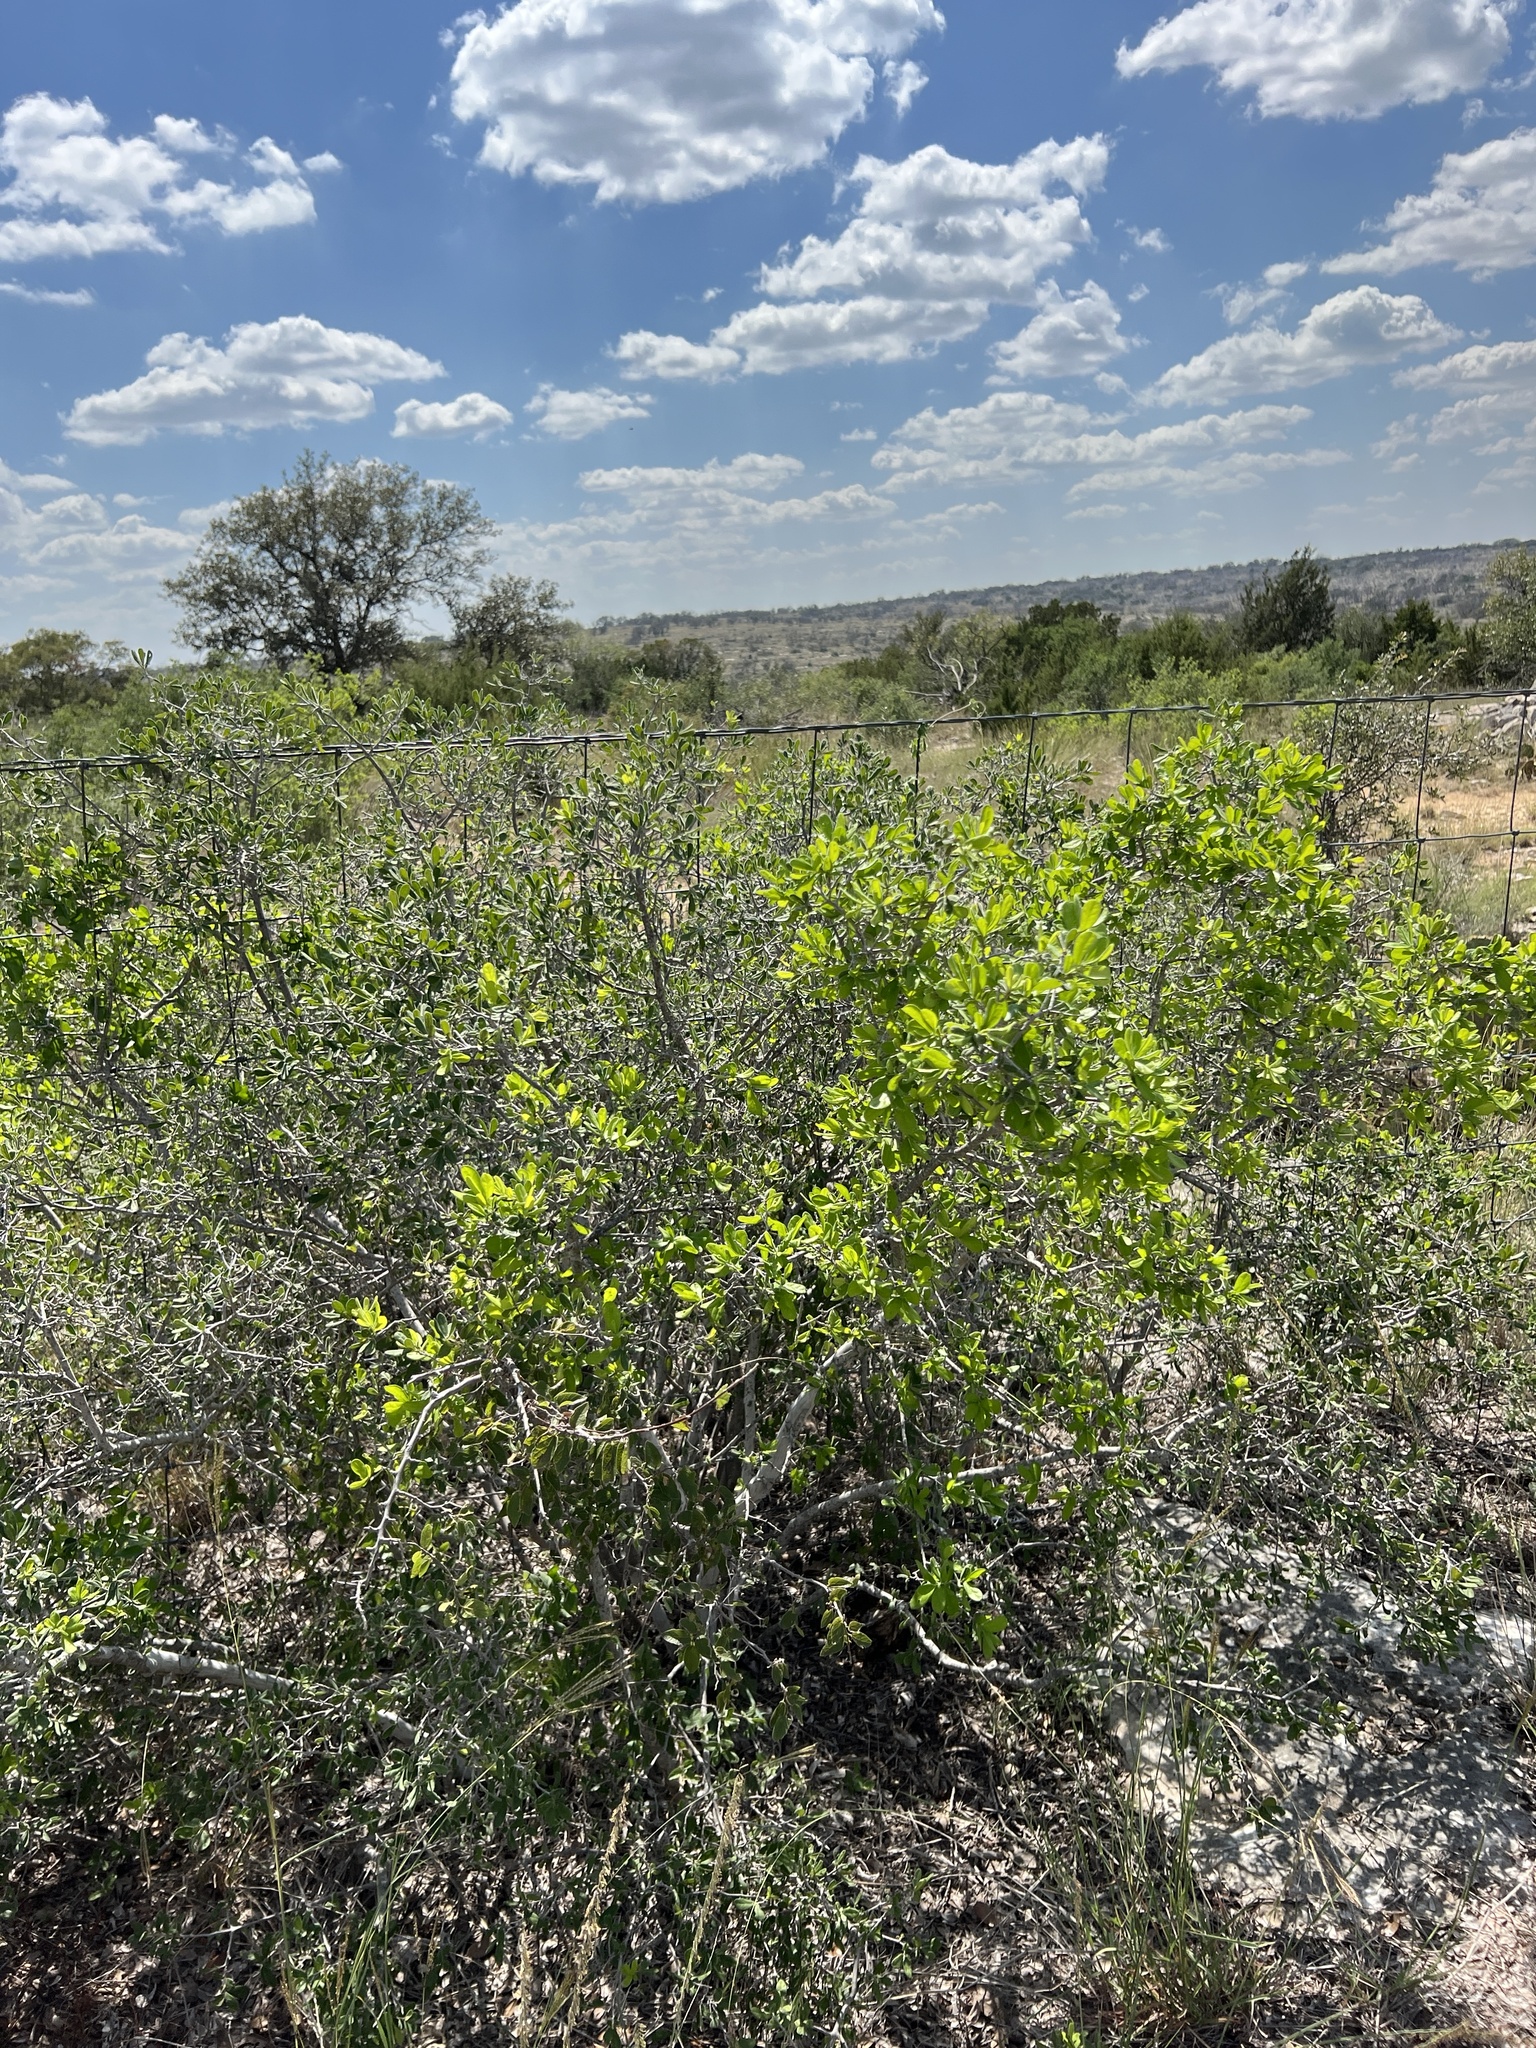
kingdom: Plantae
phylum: Tracheophyta
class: Magnoliopsida
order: Ericales
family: Ebenaceae
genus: Diospyros
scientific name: Diospyros texana
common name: Texas persimmon
